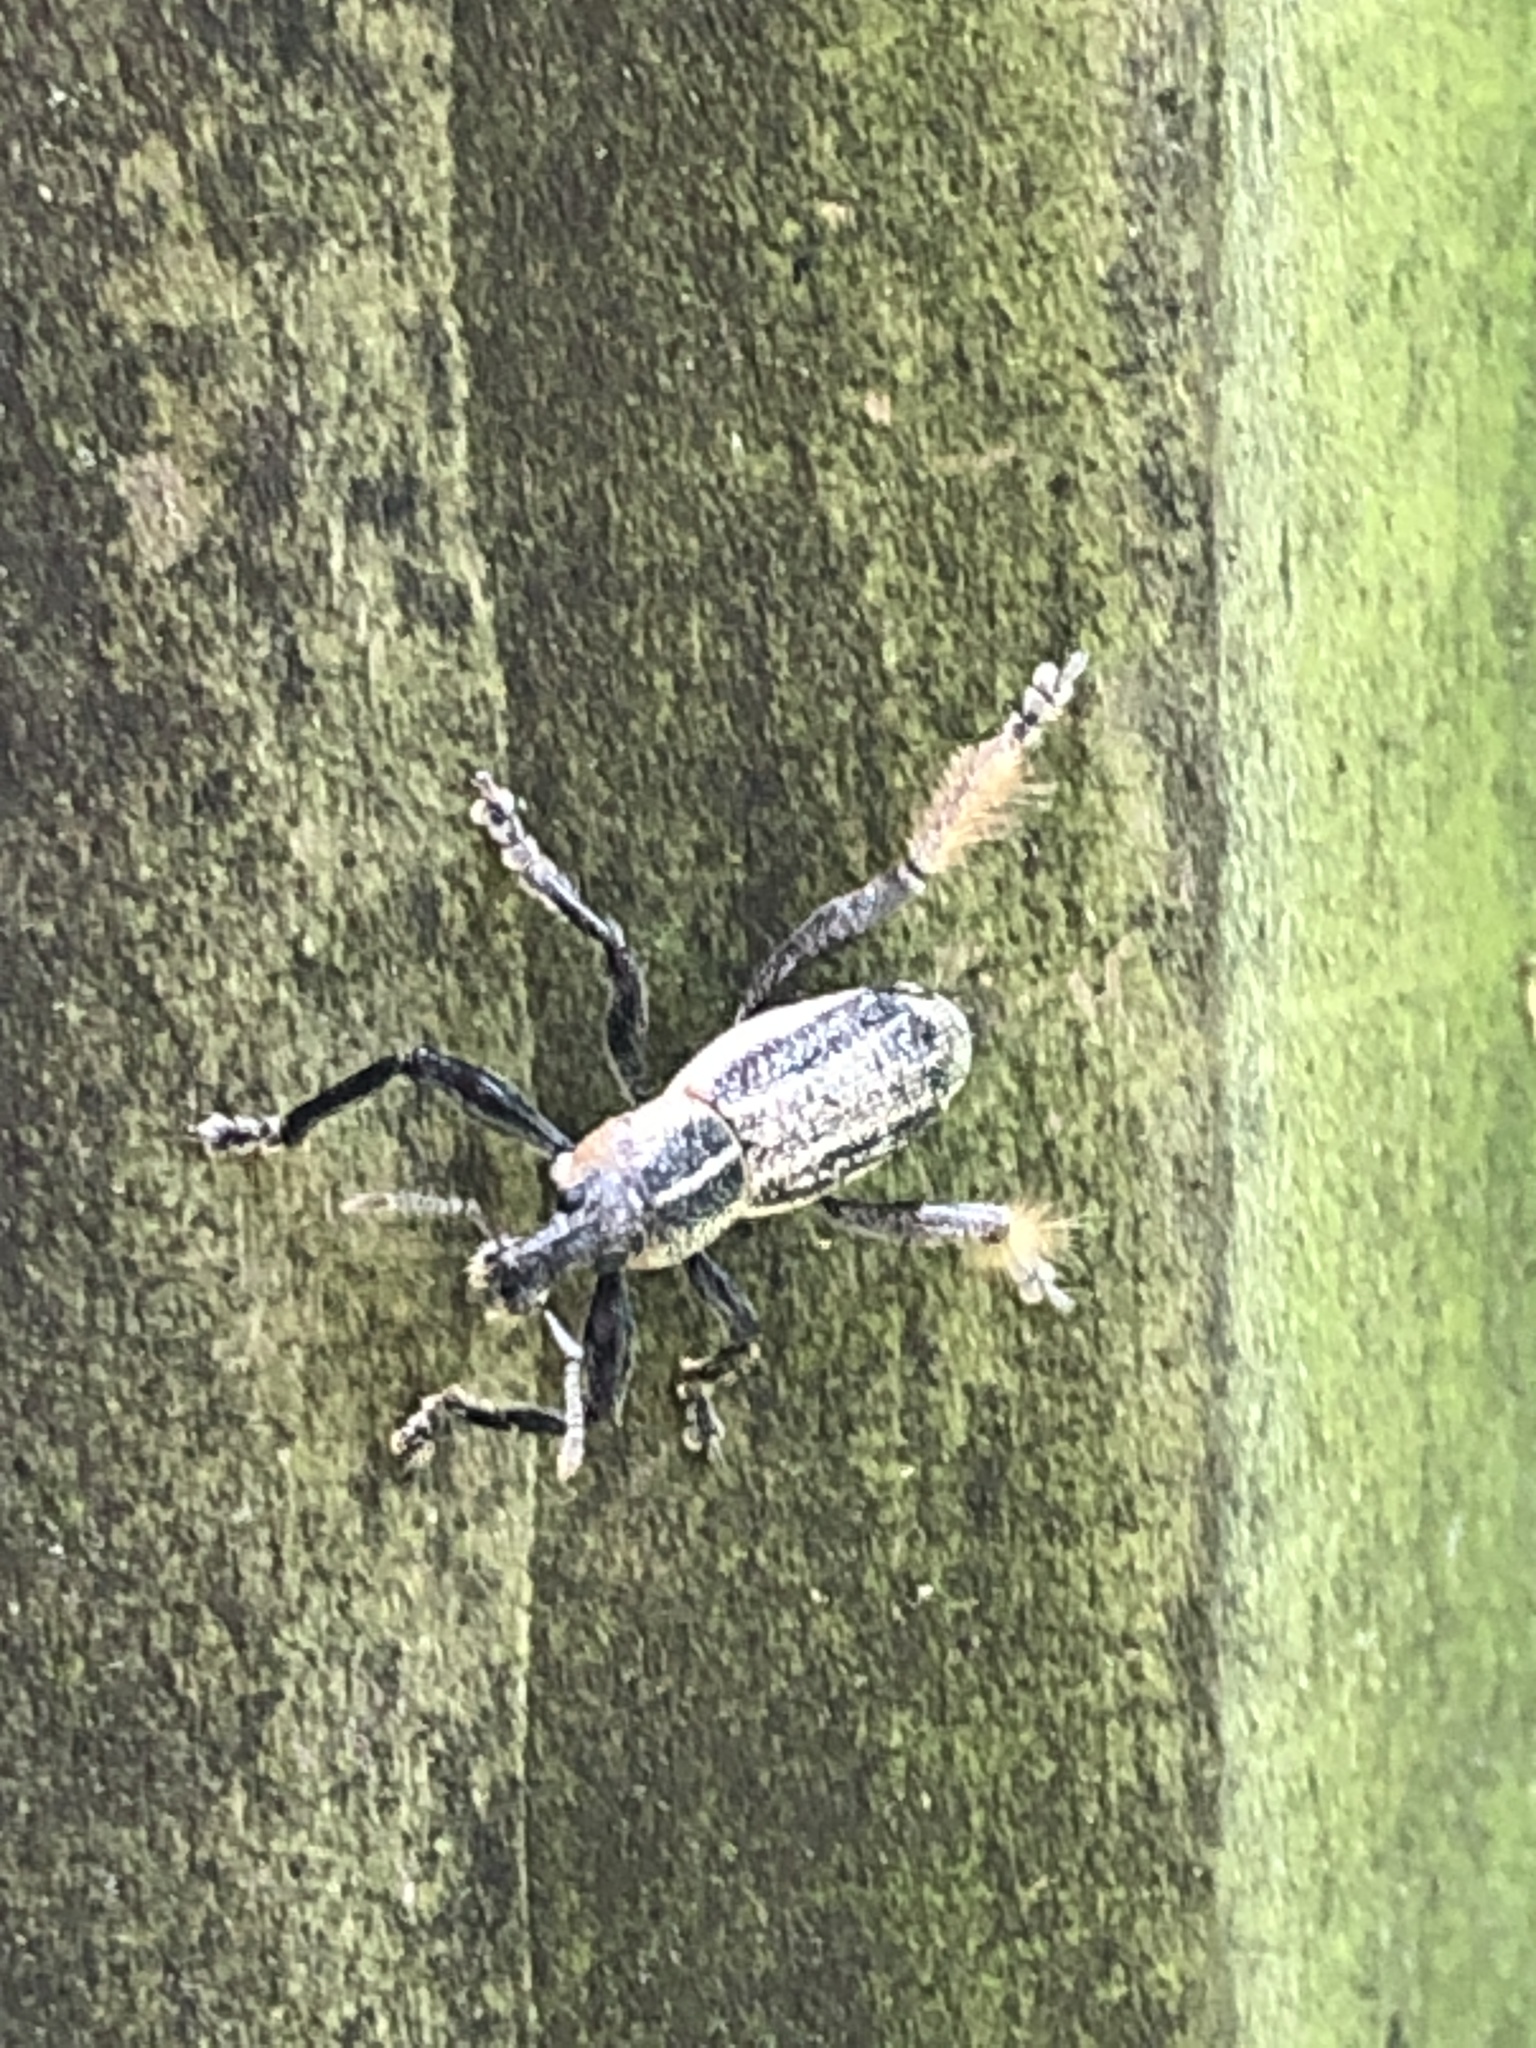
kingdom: Animalia
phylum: Arthropoda
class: Insecta
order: Coleoptera
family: Curculionidae
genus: Enaptorhinus
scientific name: Enaptorhinus granulatus
